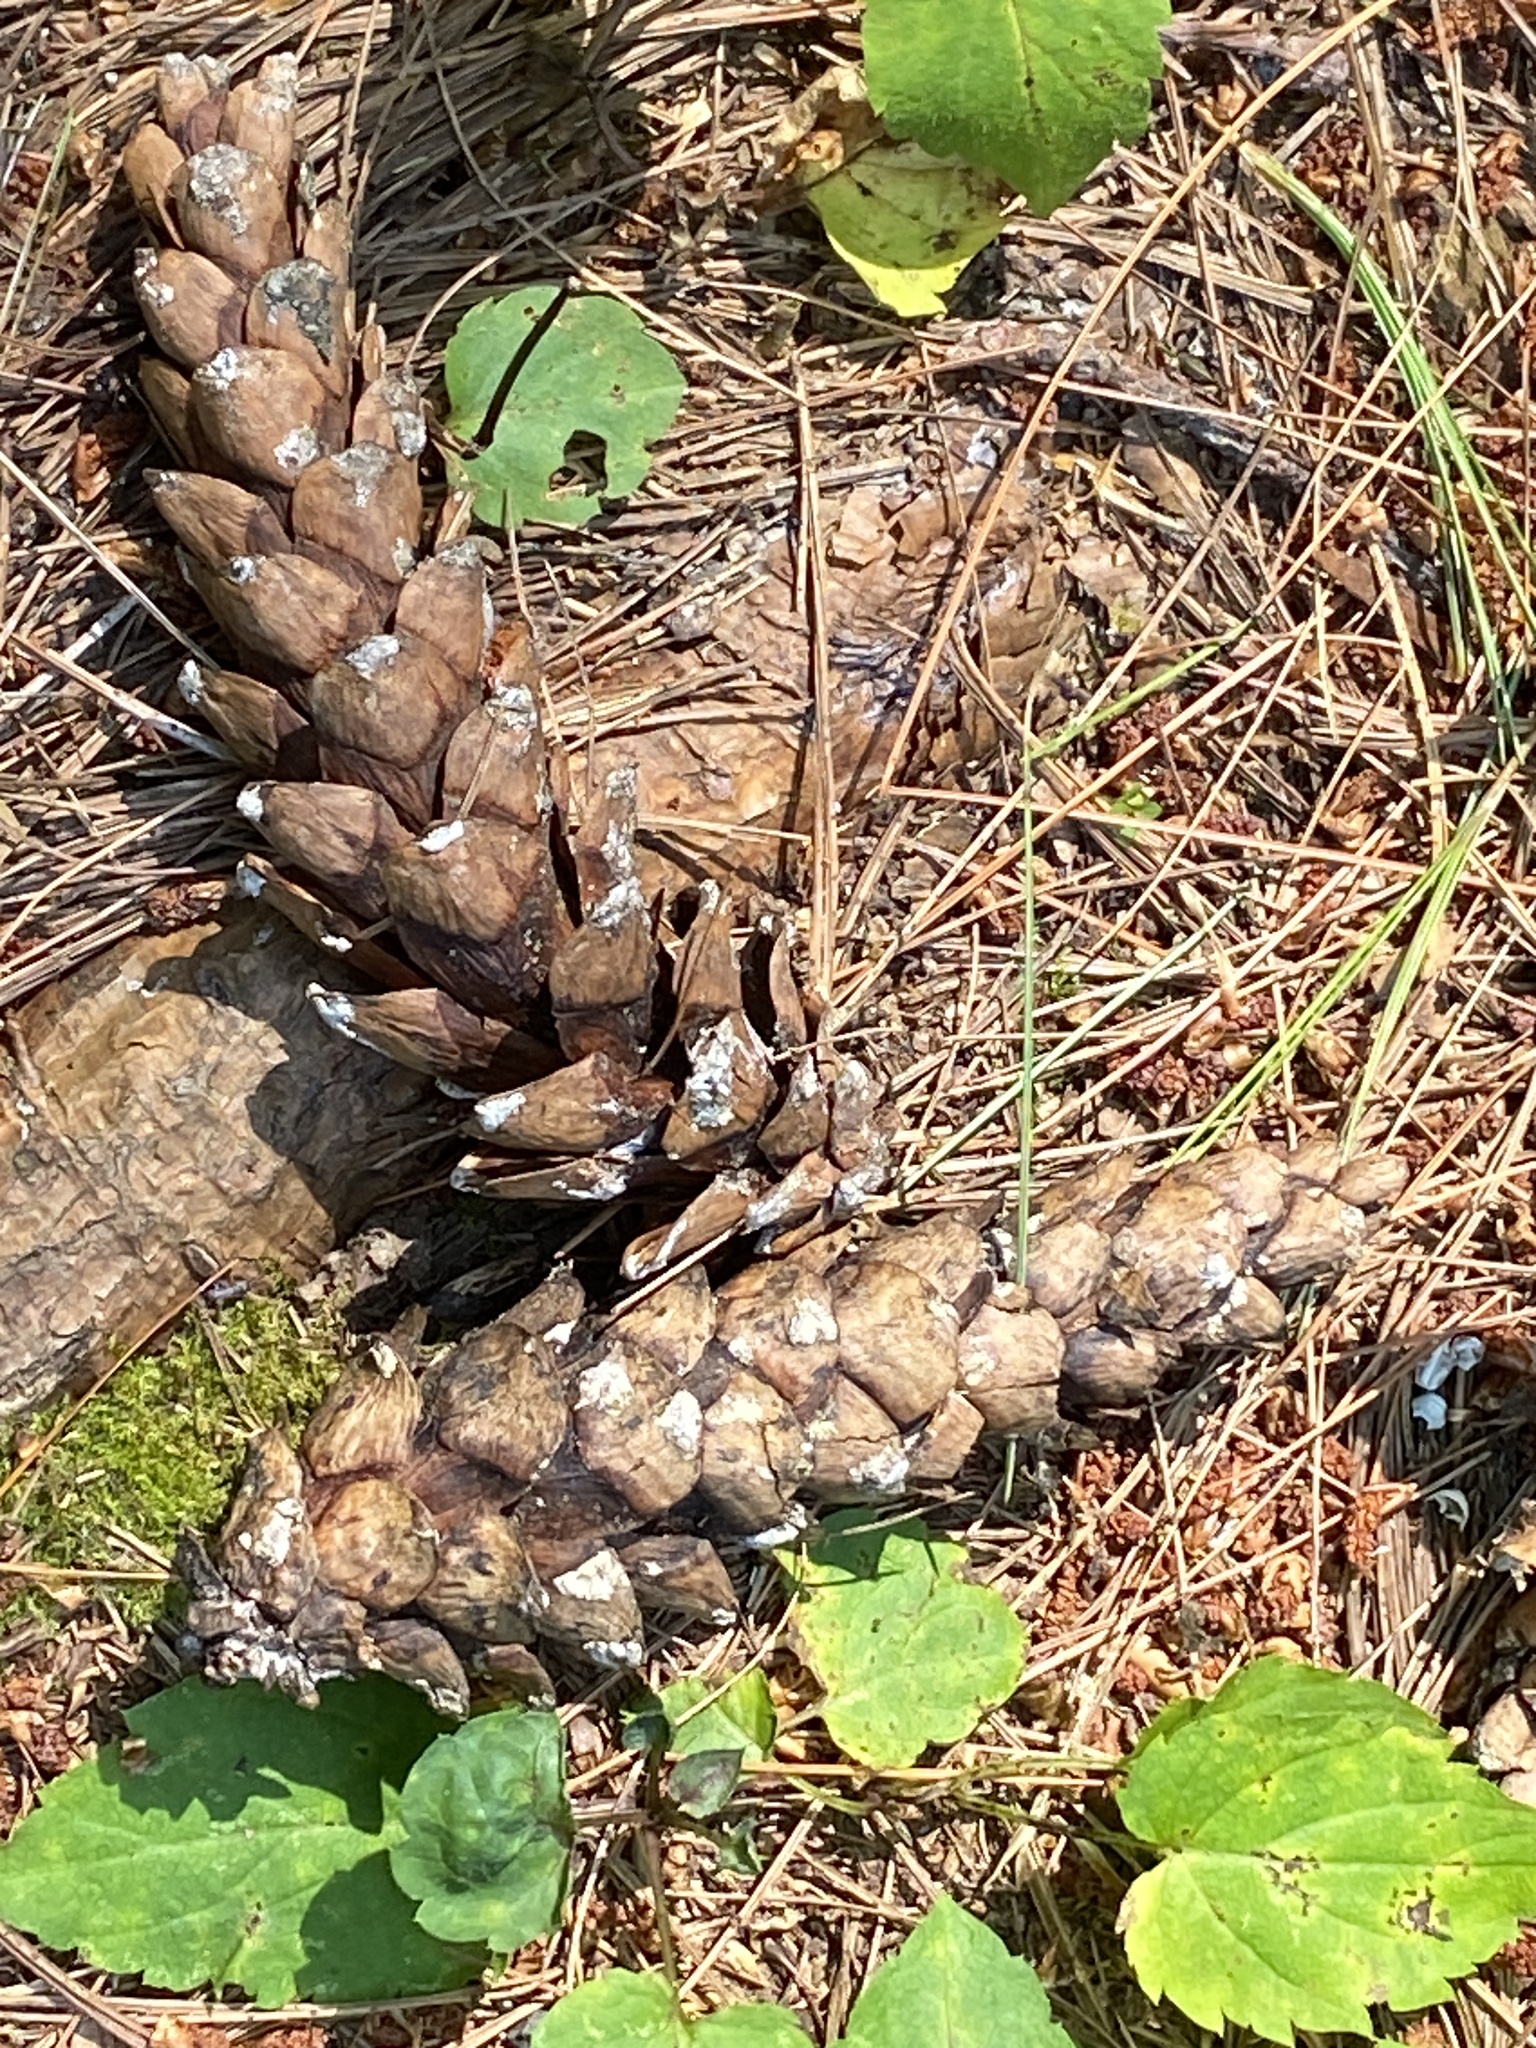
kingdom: Plantae
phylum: Tracheophyta
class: Pinopsida
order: Pinales
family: Pinaceae
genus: Pinus
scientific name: Pinus strobus
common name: Weymouth pine
